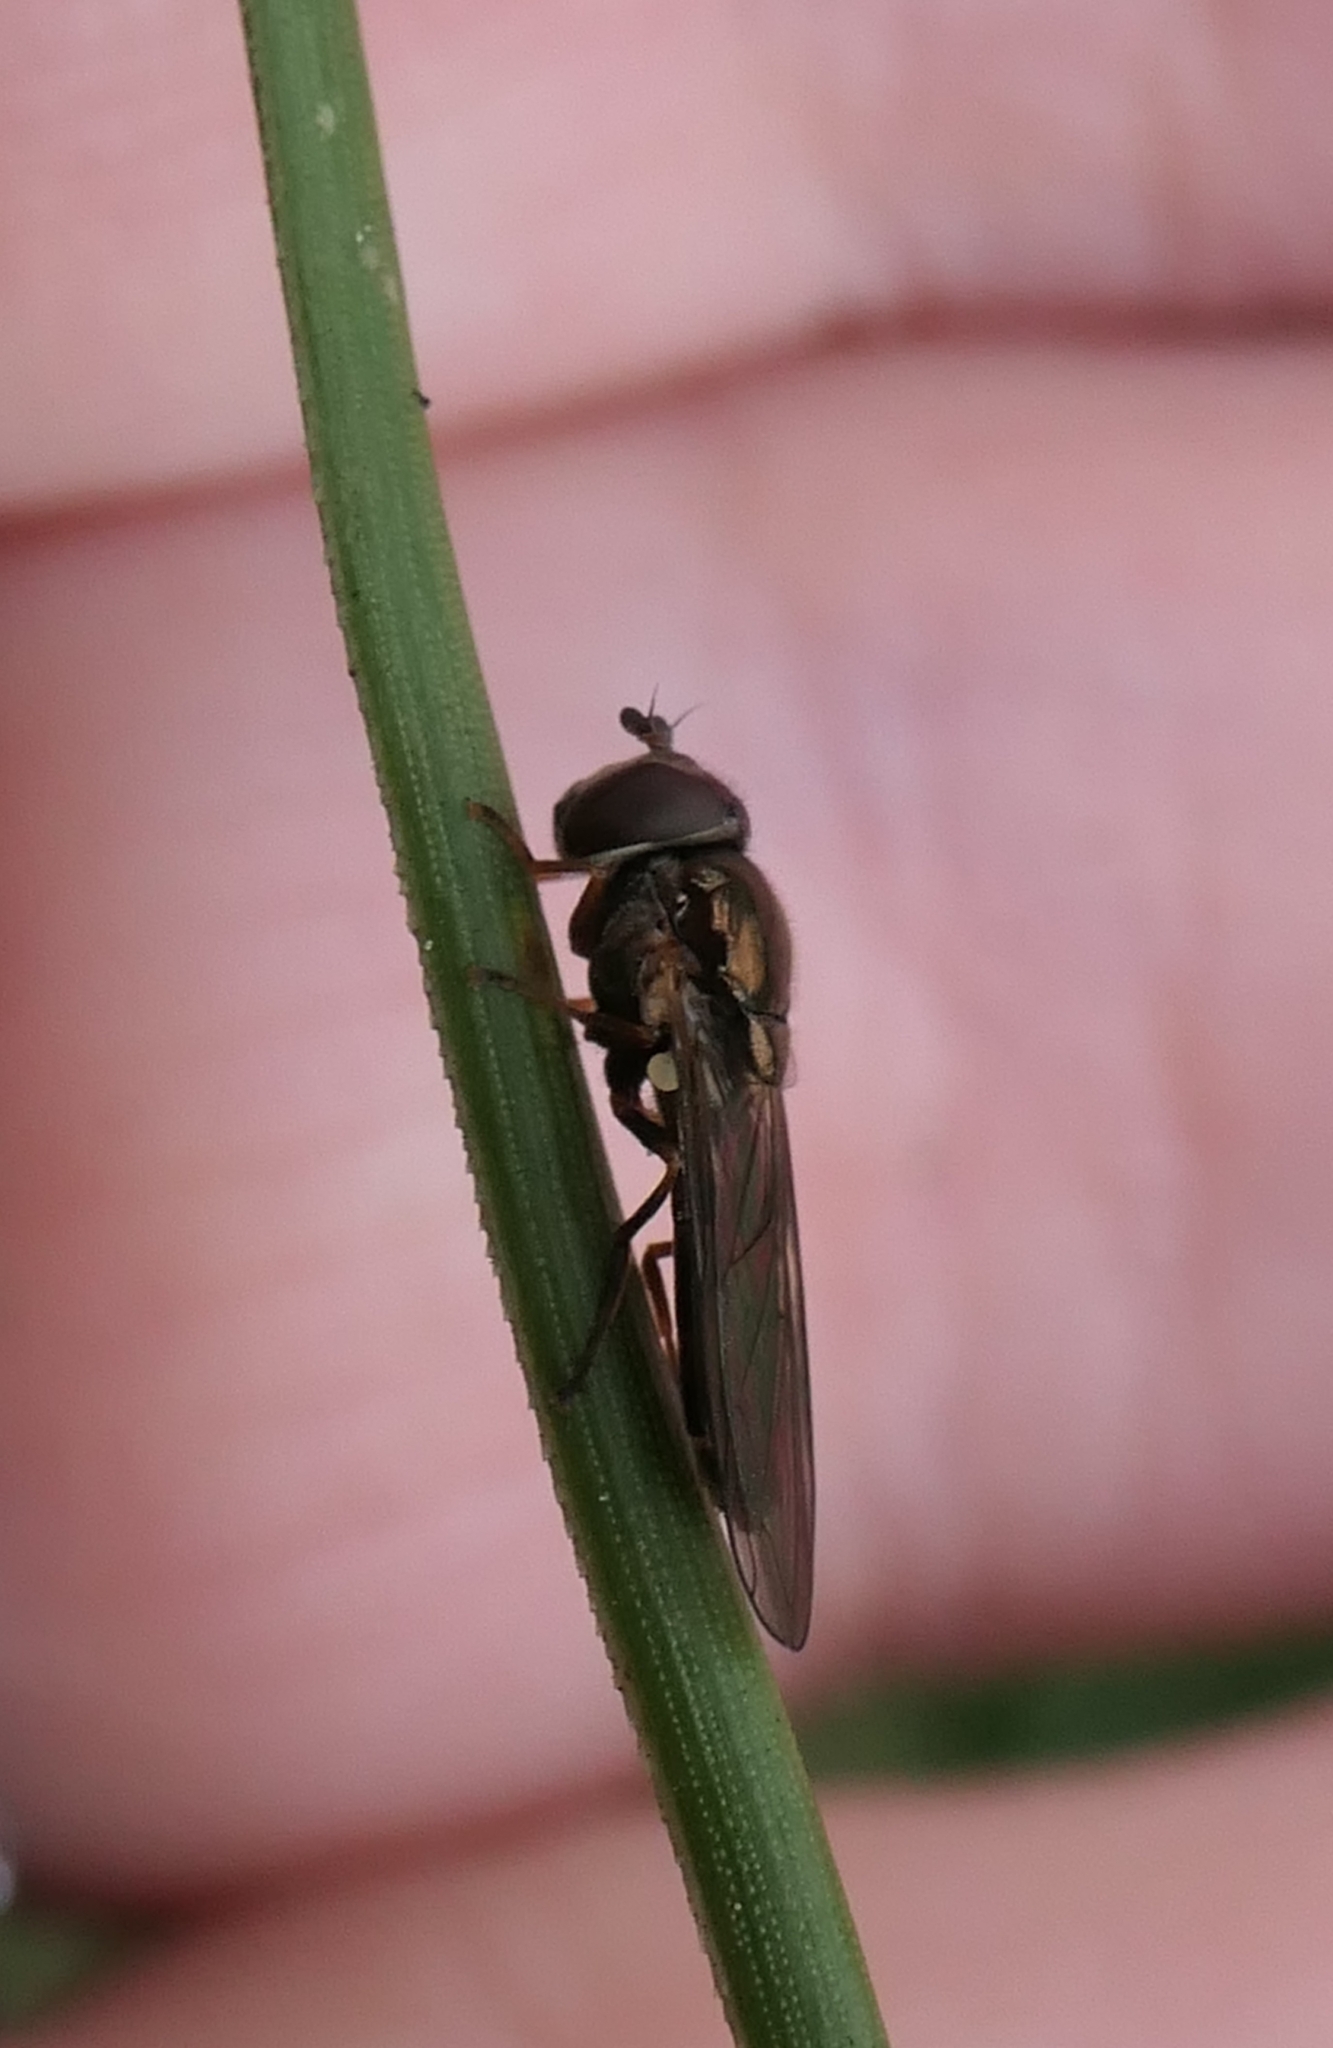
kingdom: Animalia
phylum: Arthropoda
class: Insecta
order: Diptera
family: Syrphidae
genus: Melanostoma
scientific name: Melanostoma fasciatum
